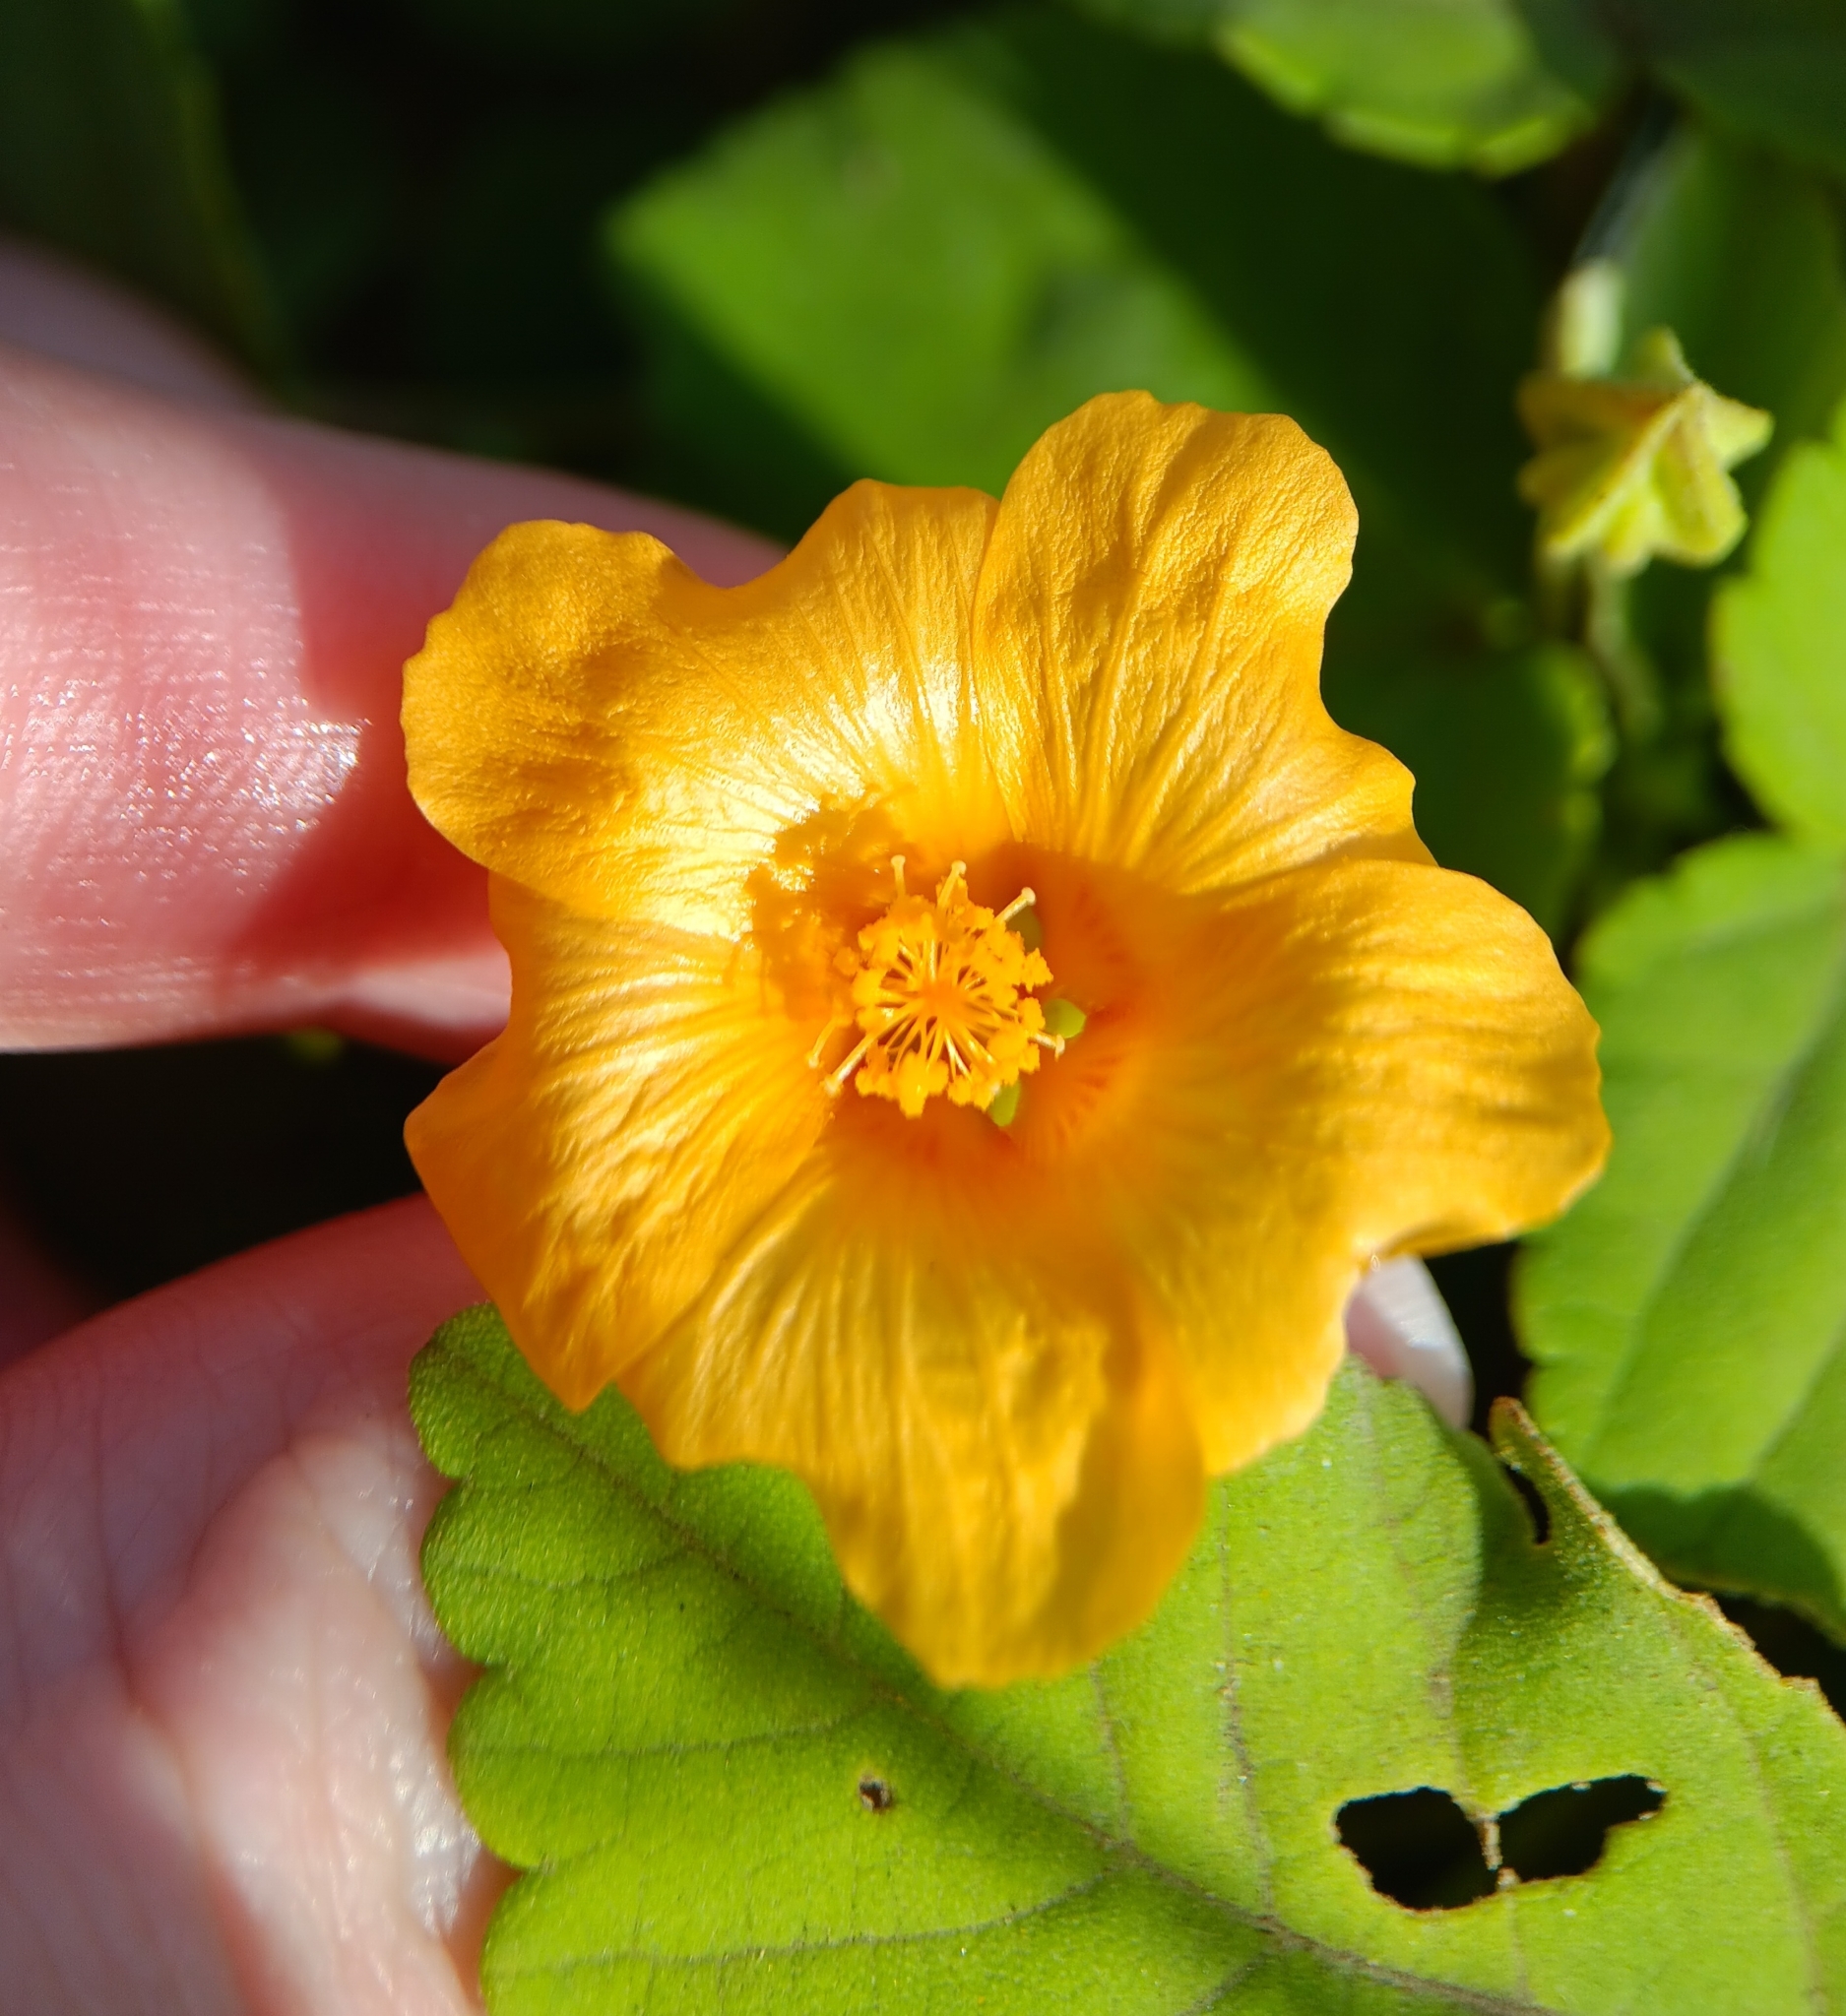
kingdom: Plantae
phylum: Tracheophyta
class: Magnoliopsida
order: Malvales
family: Malvaceae
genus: Sida
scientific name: Sida fallax
